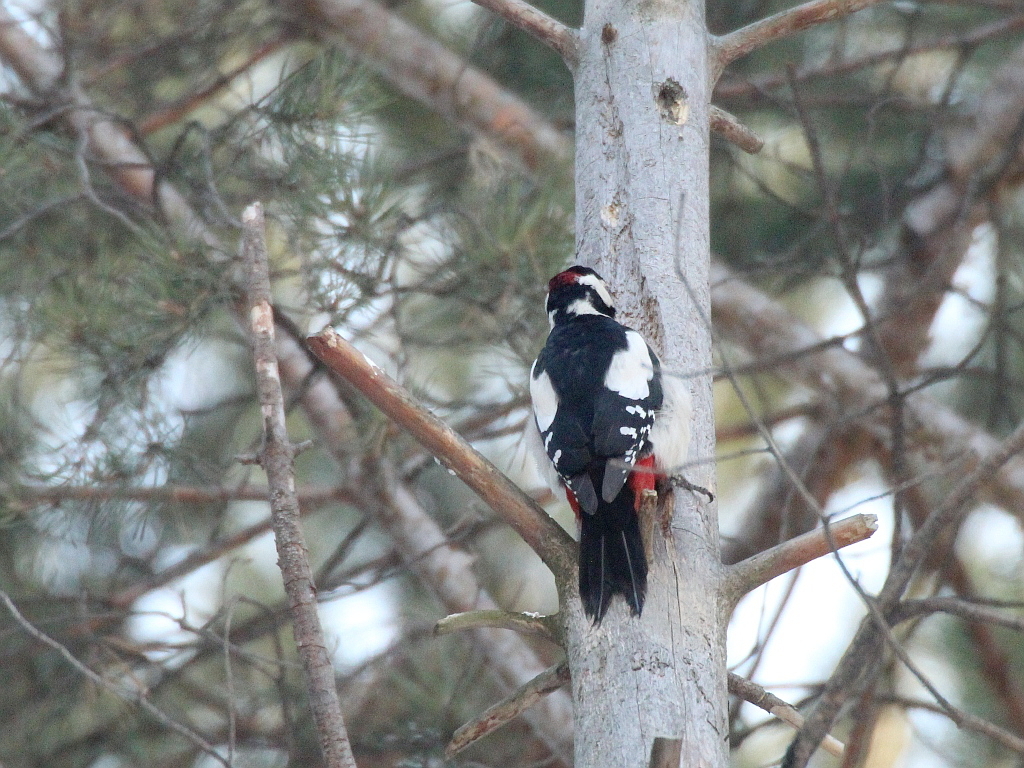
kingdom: Animalia
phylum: Chordata
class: Aves
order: Piciformes
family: Picidae
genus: Dendrocopos
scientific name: Dendrocopos major
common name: Great spotted woodpecker
